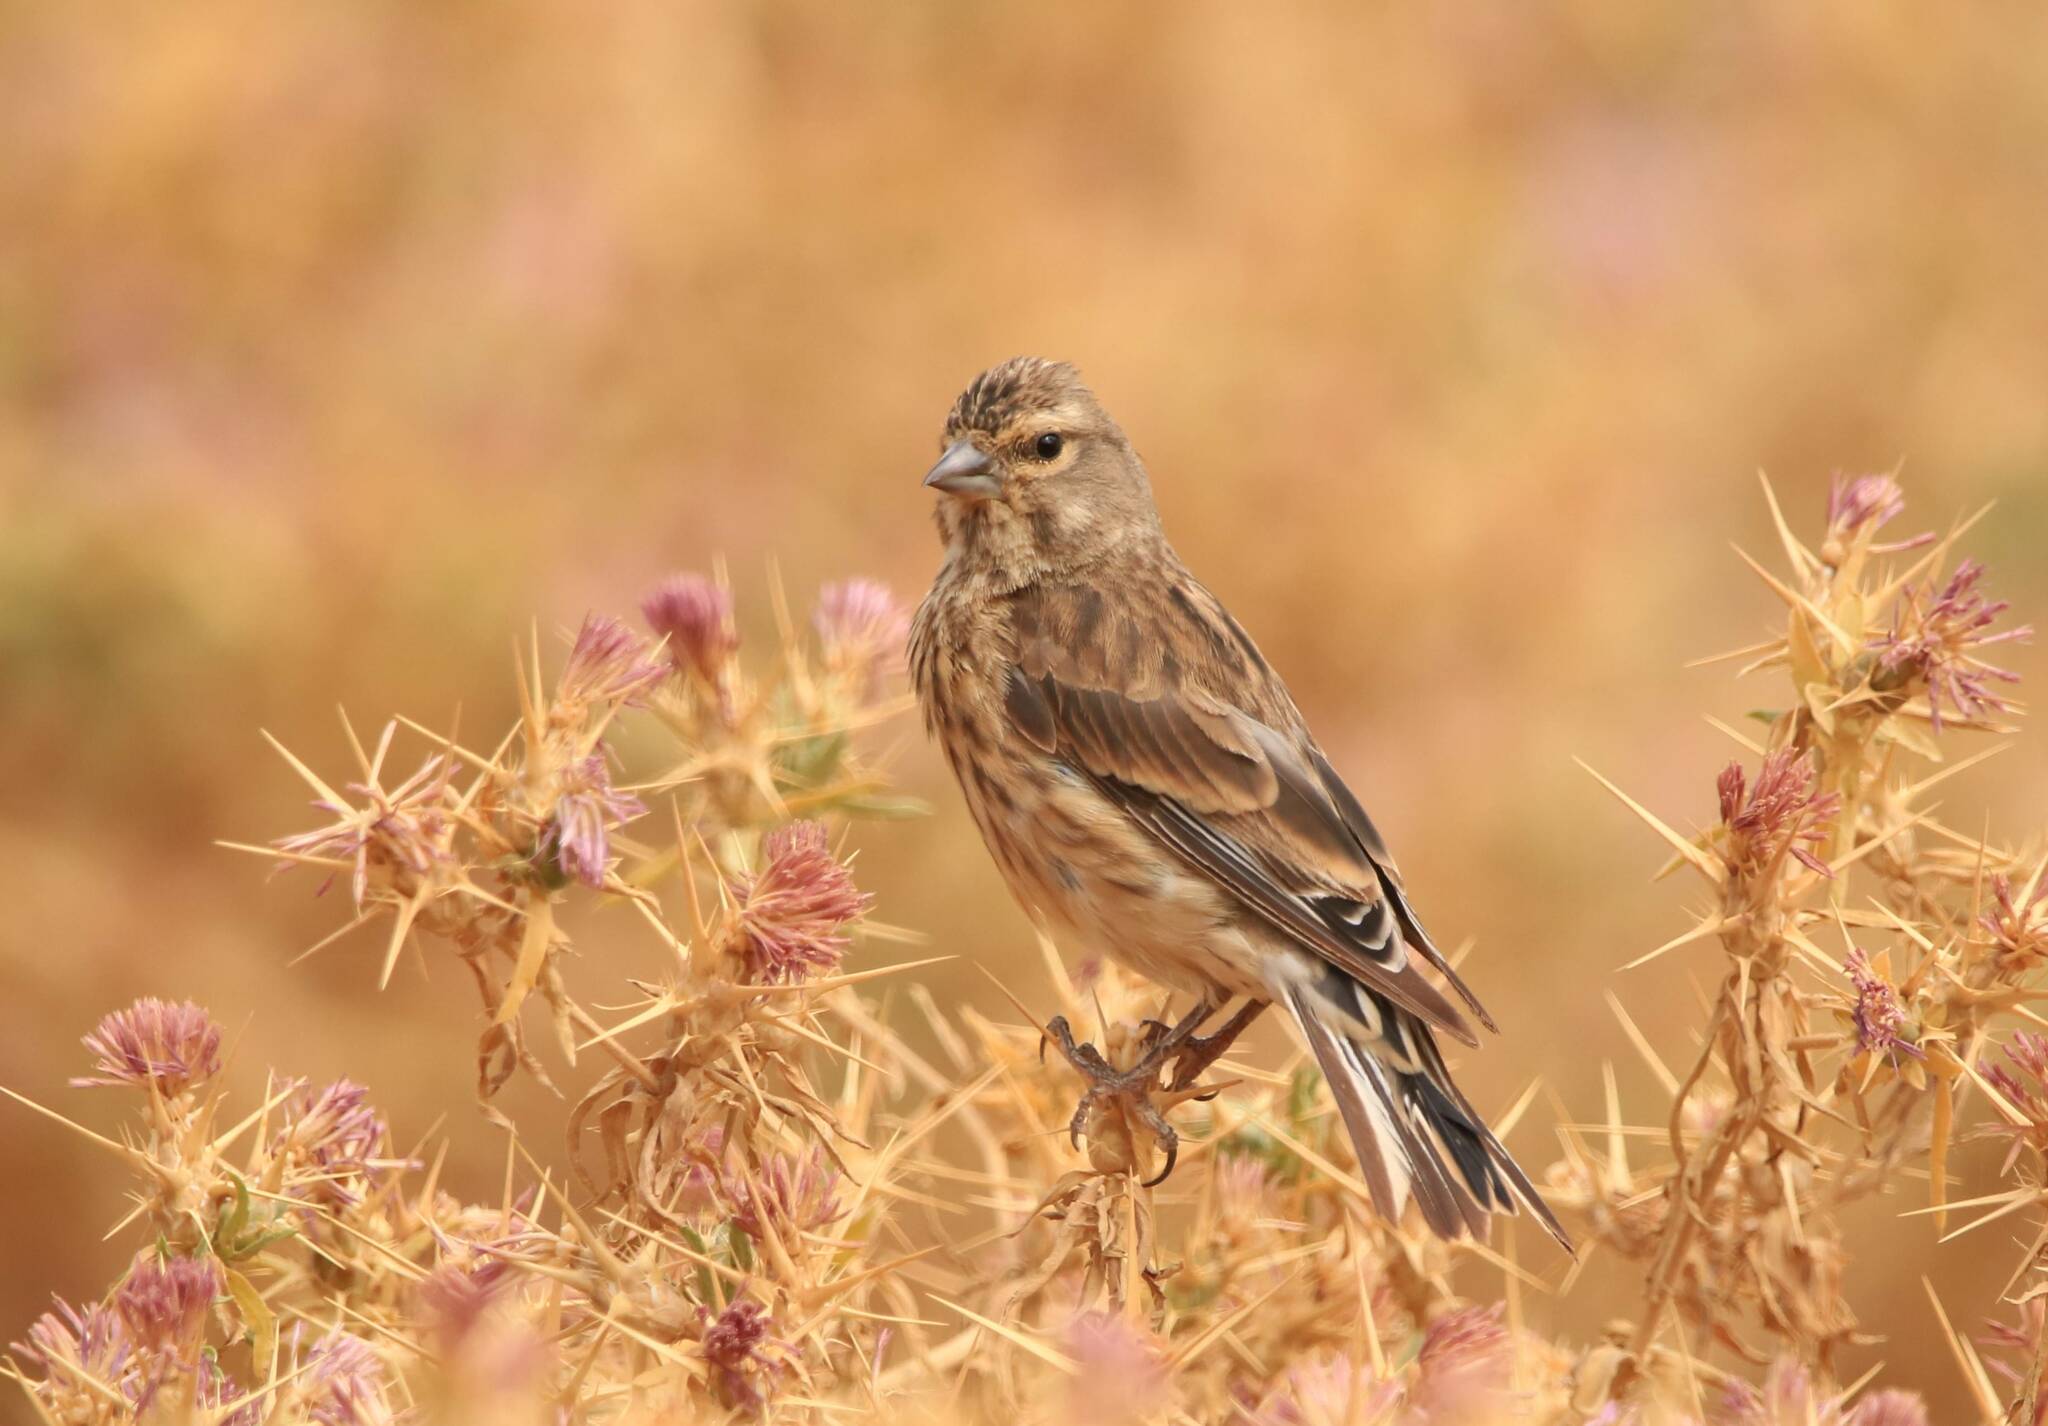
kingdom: Animalia
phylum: Chordata
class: Aves
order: Passeriformes
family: Fringillidae
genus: Linaria
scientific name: Linaria cannabina
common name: Common linnet
